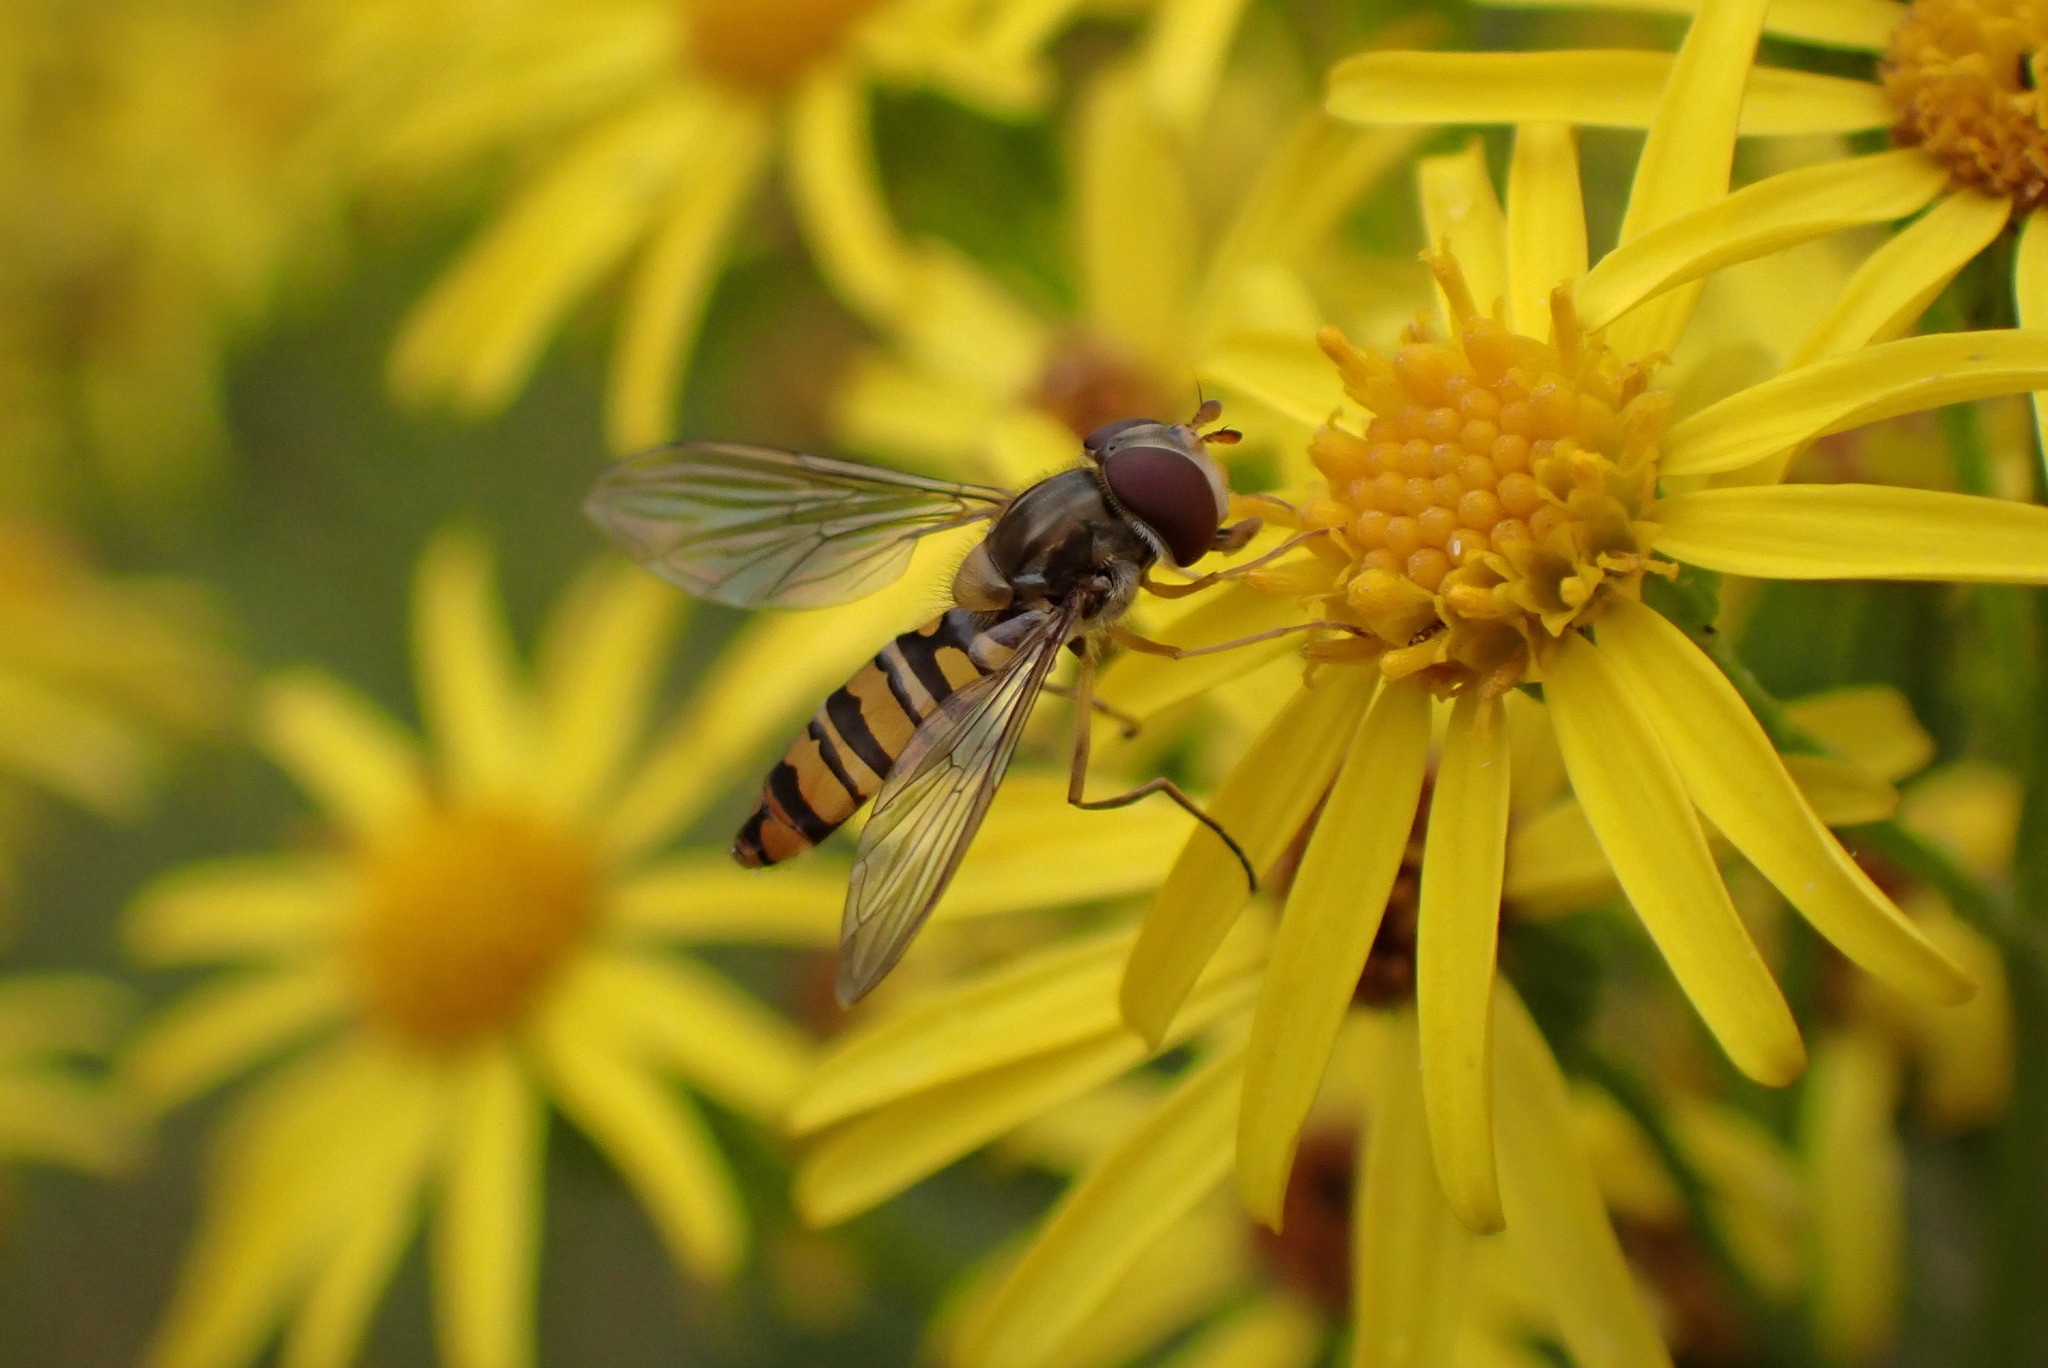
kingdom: Animalia
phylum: Arthropoda
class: Insecta
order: Diptera
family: Syrphidae
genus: Episyrphus
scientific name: Episyrphus balteatus
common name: Marmalade hoverfly
